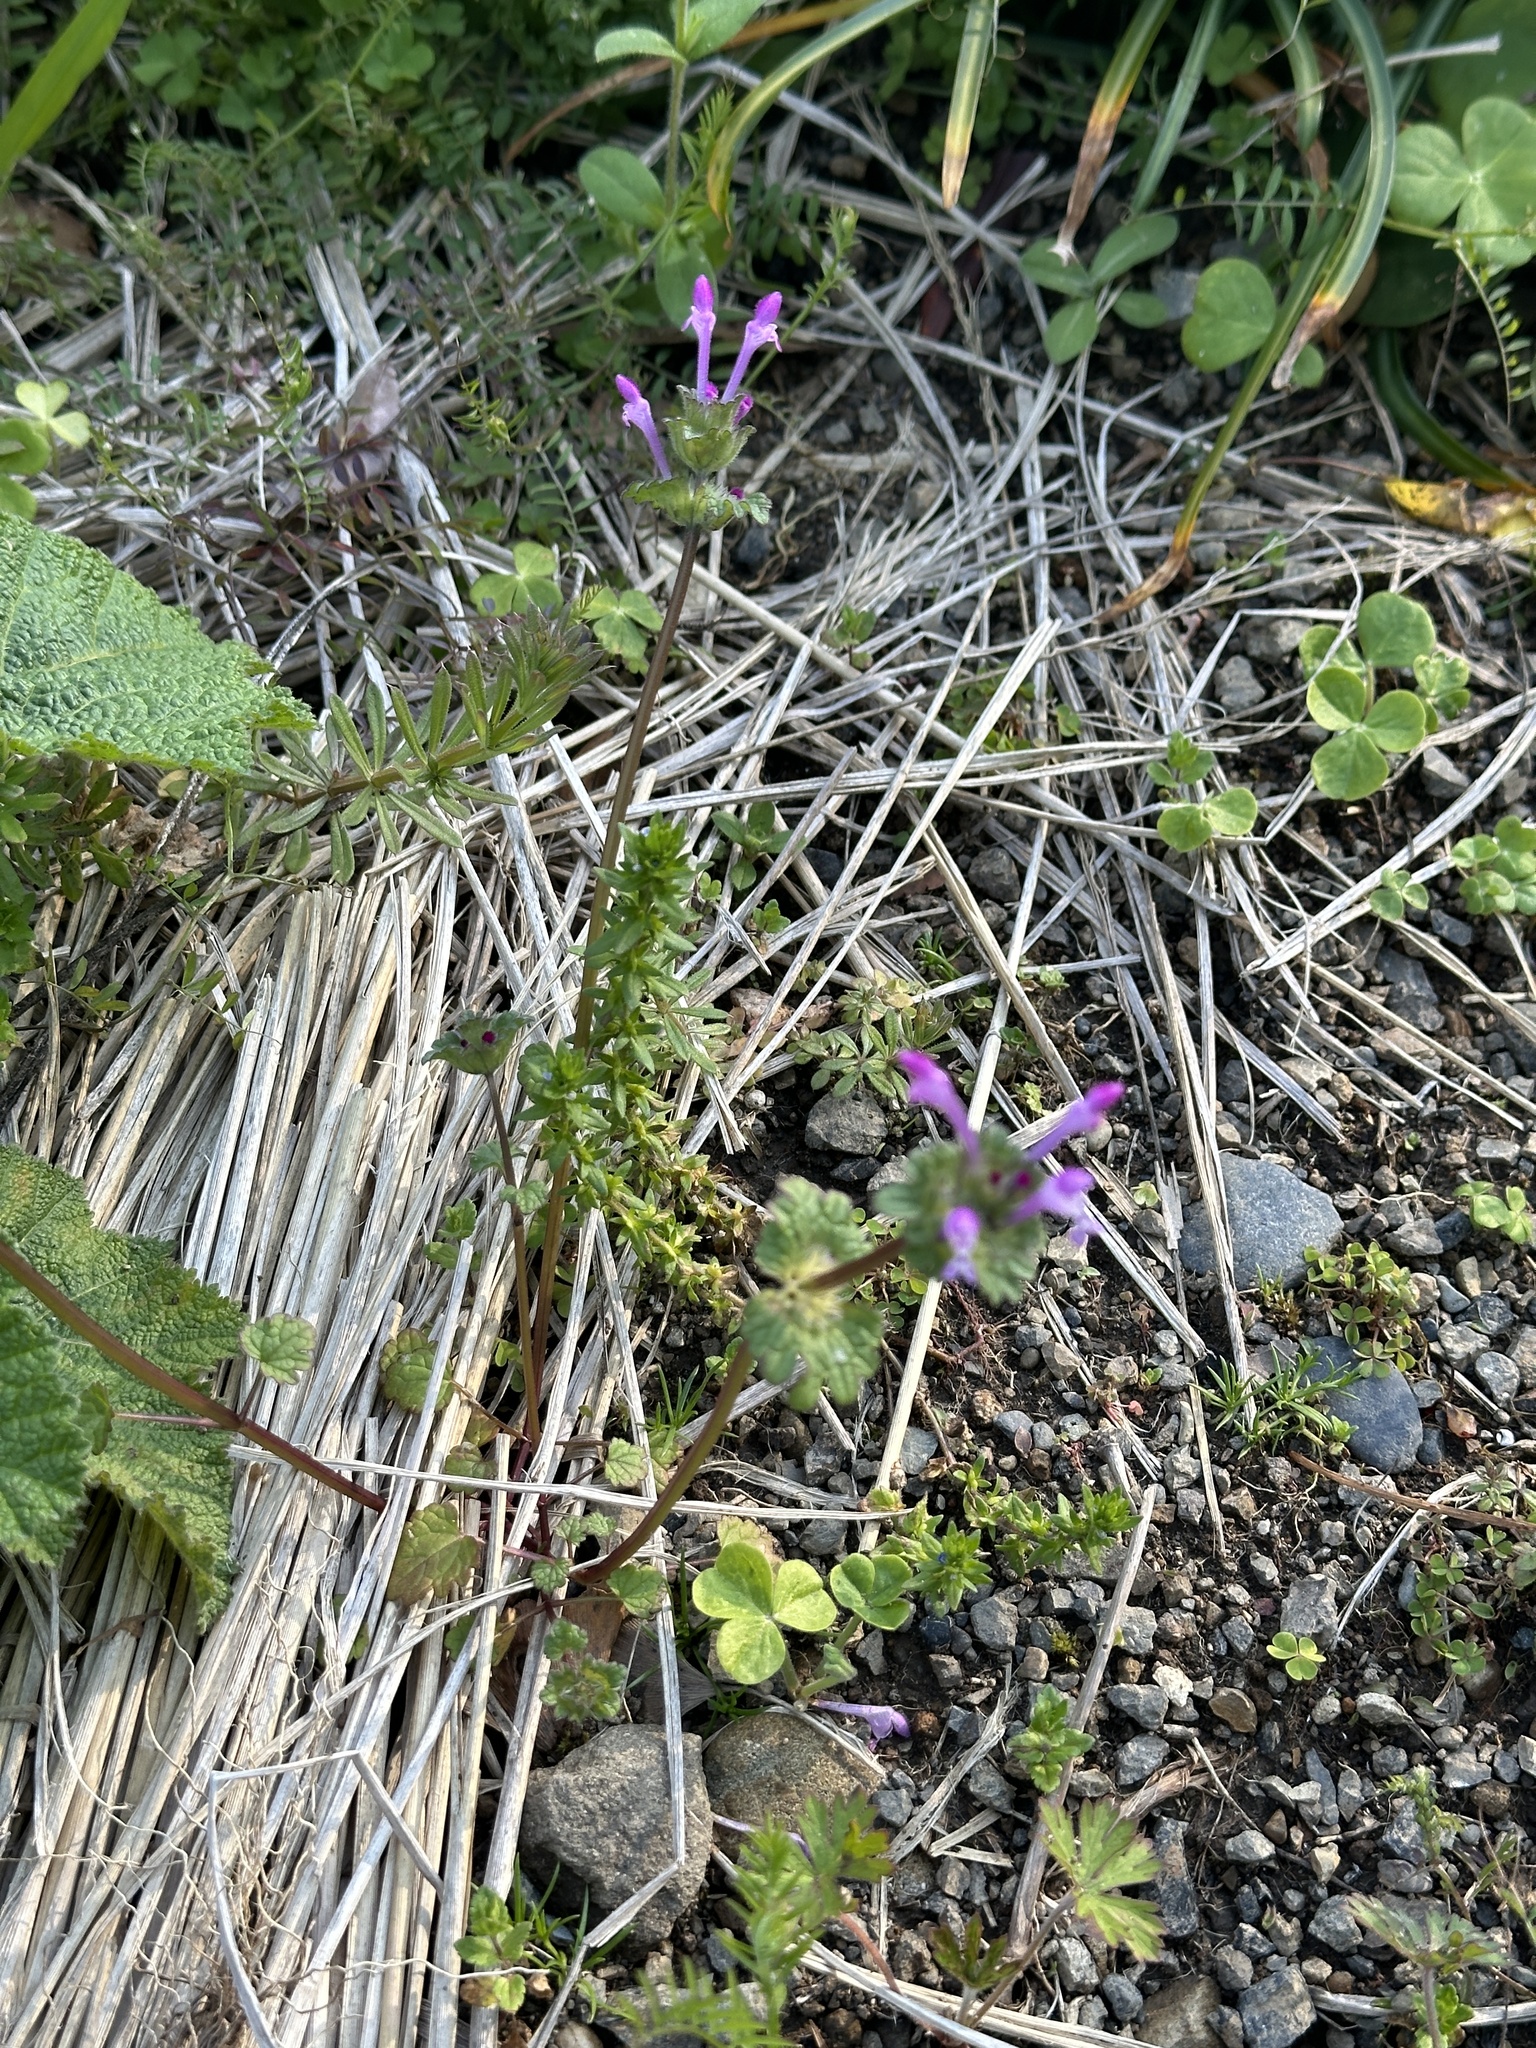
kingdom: Plantae
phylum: Tracheophyta
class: Magnoliopsida
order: Lamiales
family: Lamiaceae
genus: Lamium
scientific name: Lamium amplexicaule
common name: Henbit dead-nettle
